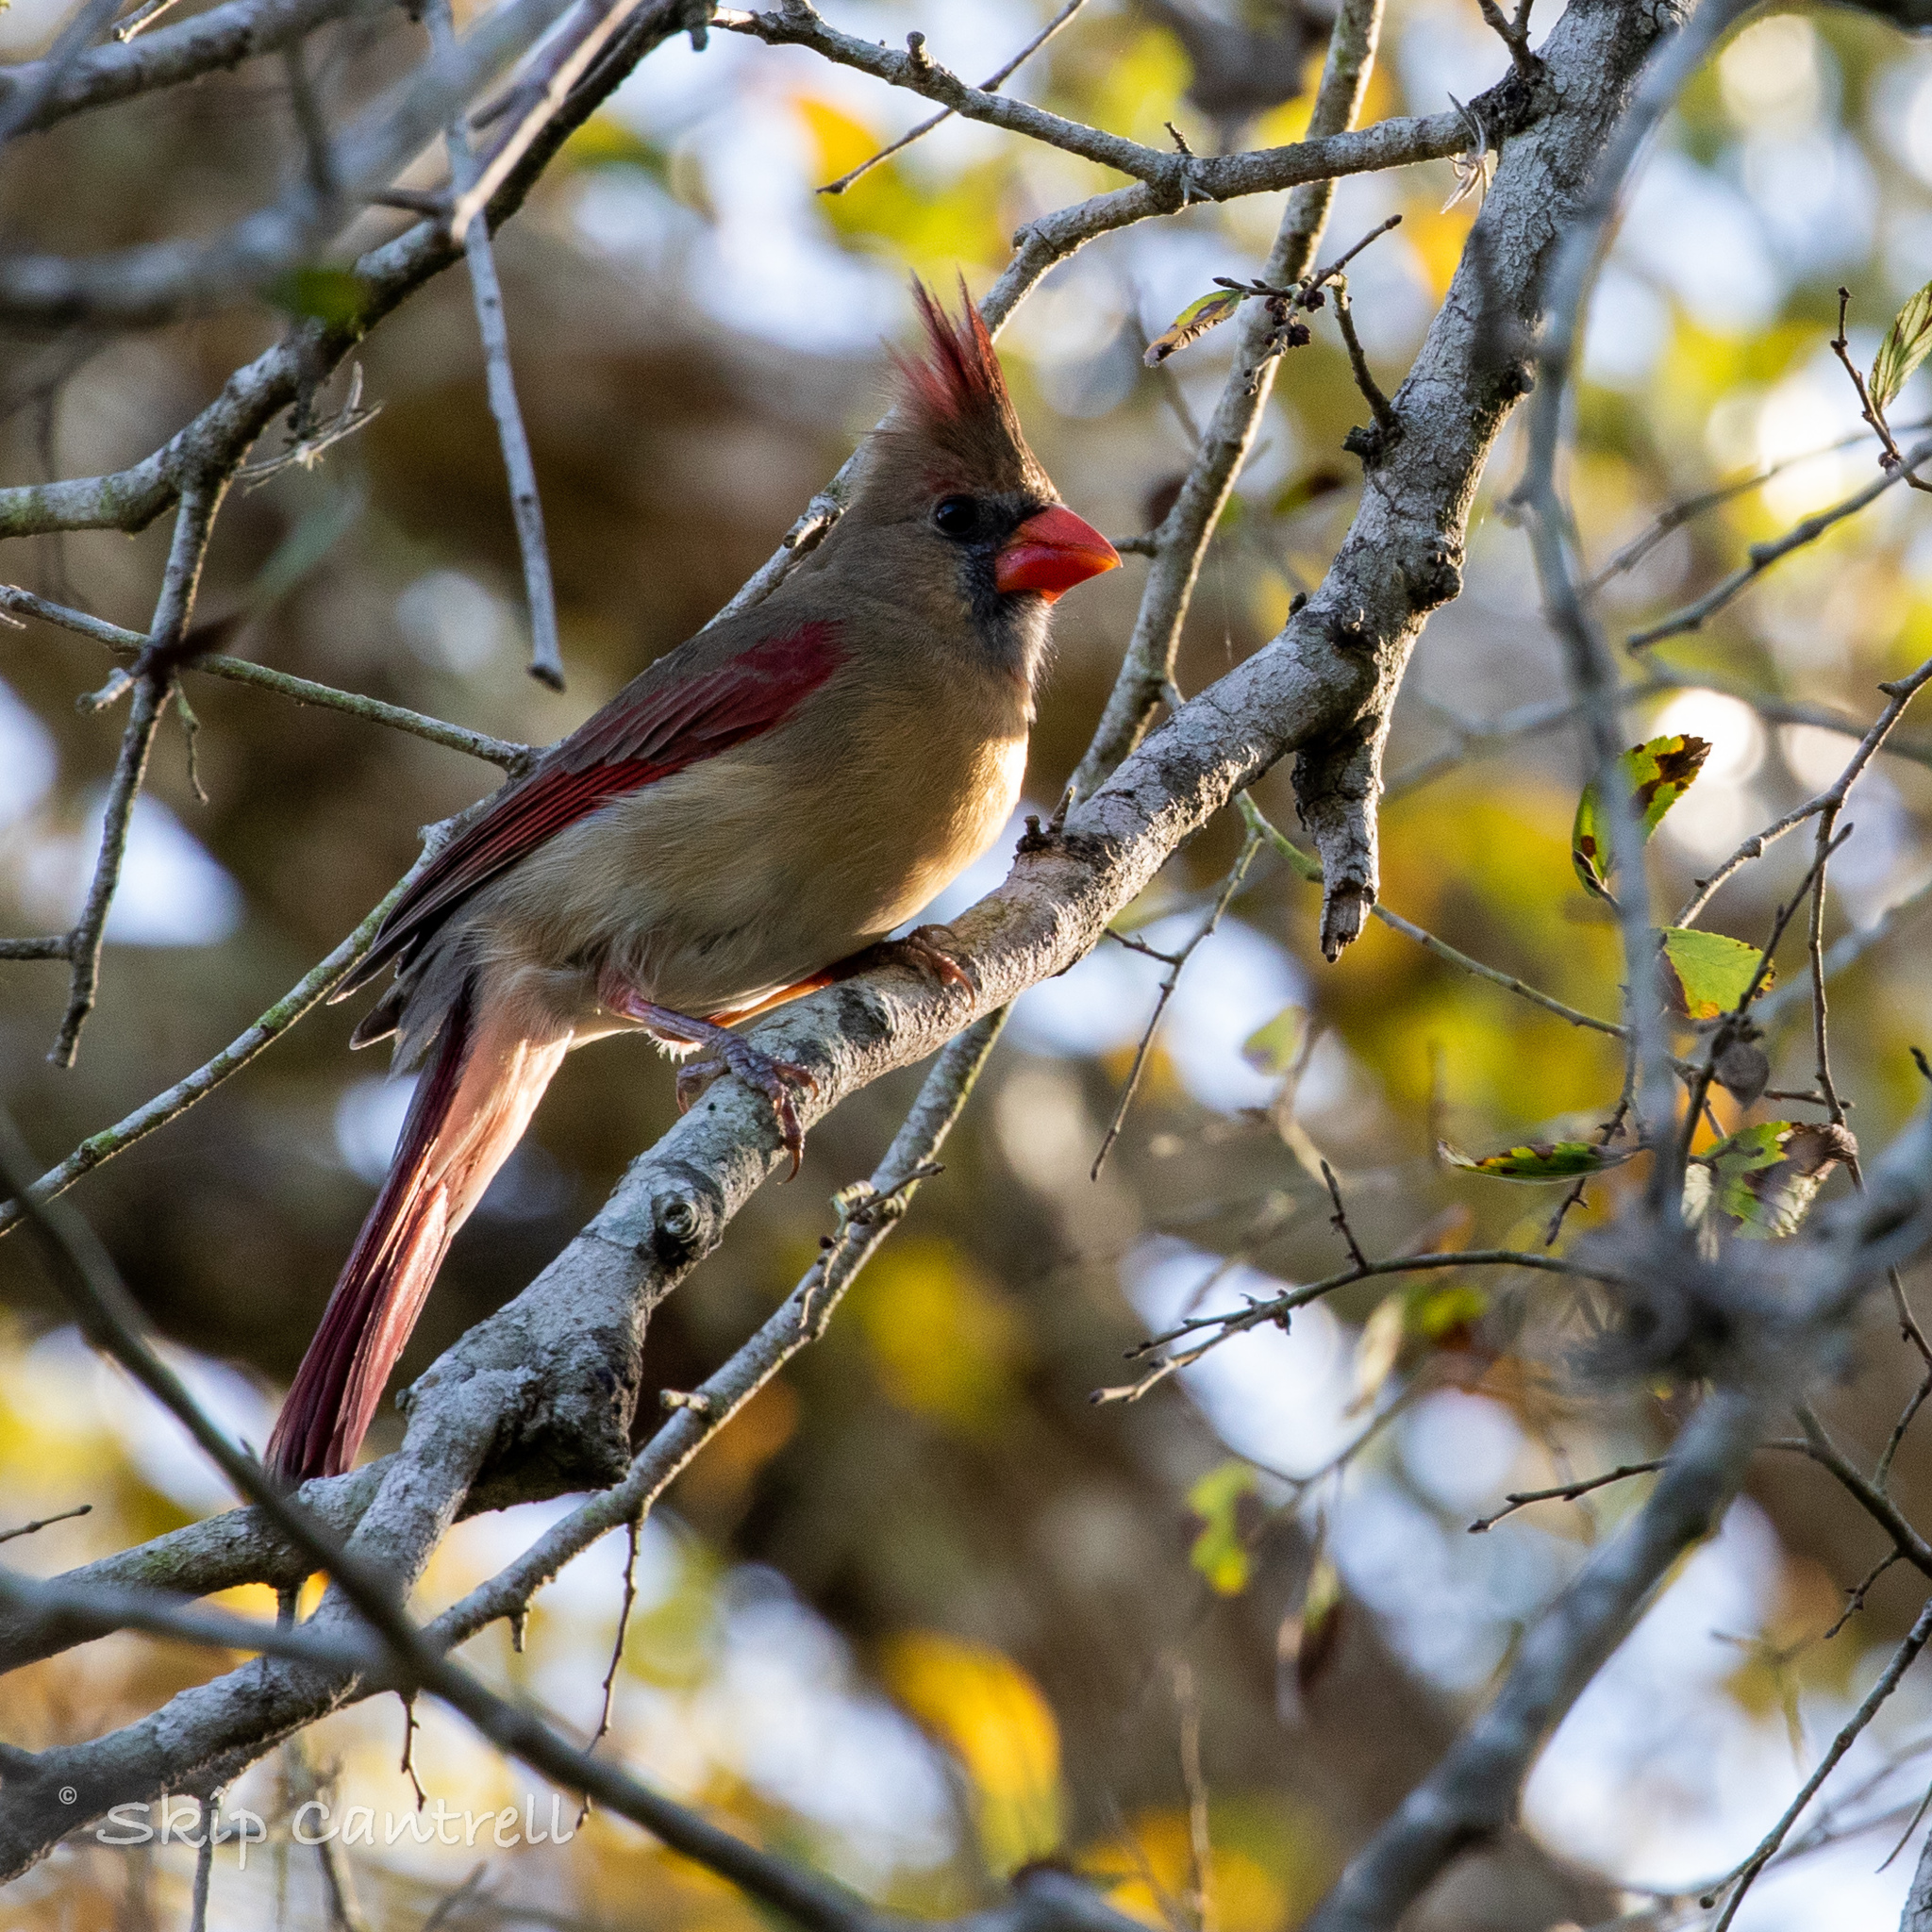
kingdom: Animalia
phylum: Chordata
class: Aves
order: Passeriformes
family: Cardinalidae
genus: Cardinalis
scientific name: Cardinalis cardinalis
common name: Northern cardinal
